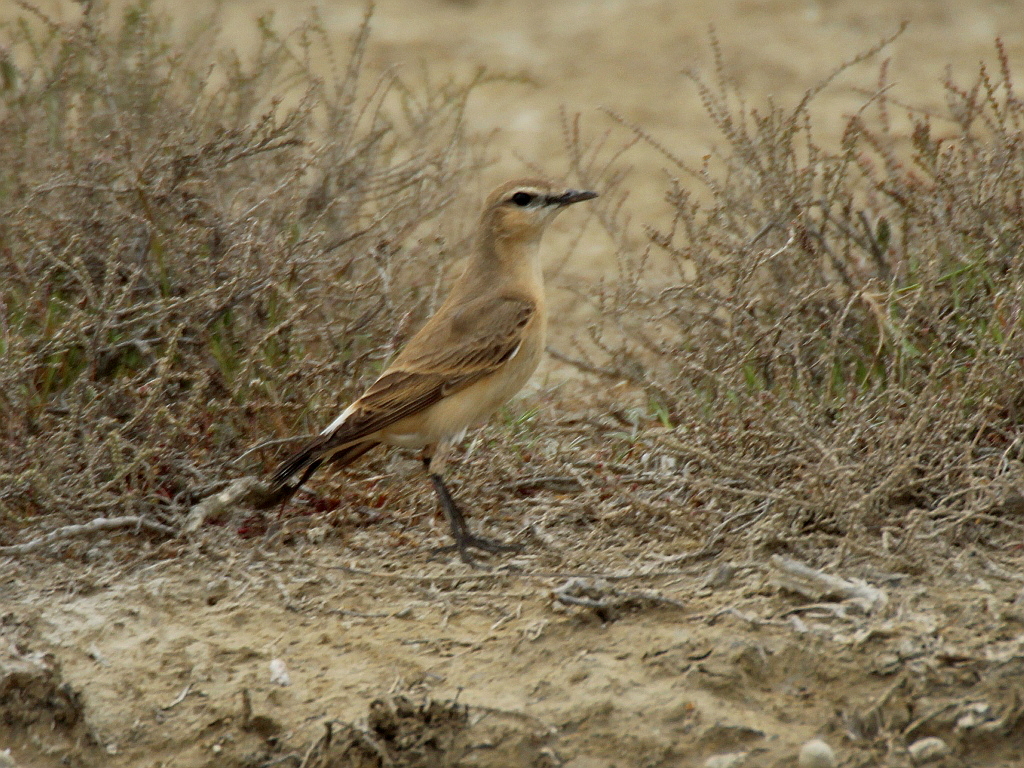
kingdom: Animalia
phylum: Chordata
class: Aves
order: Passeriformes
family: Muscicapidae
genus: Oenanthe
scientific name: Oenanthe isabellina
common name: Isabelline wheatear
